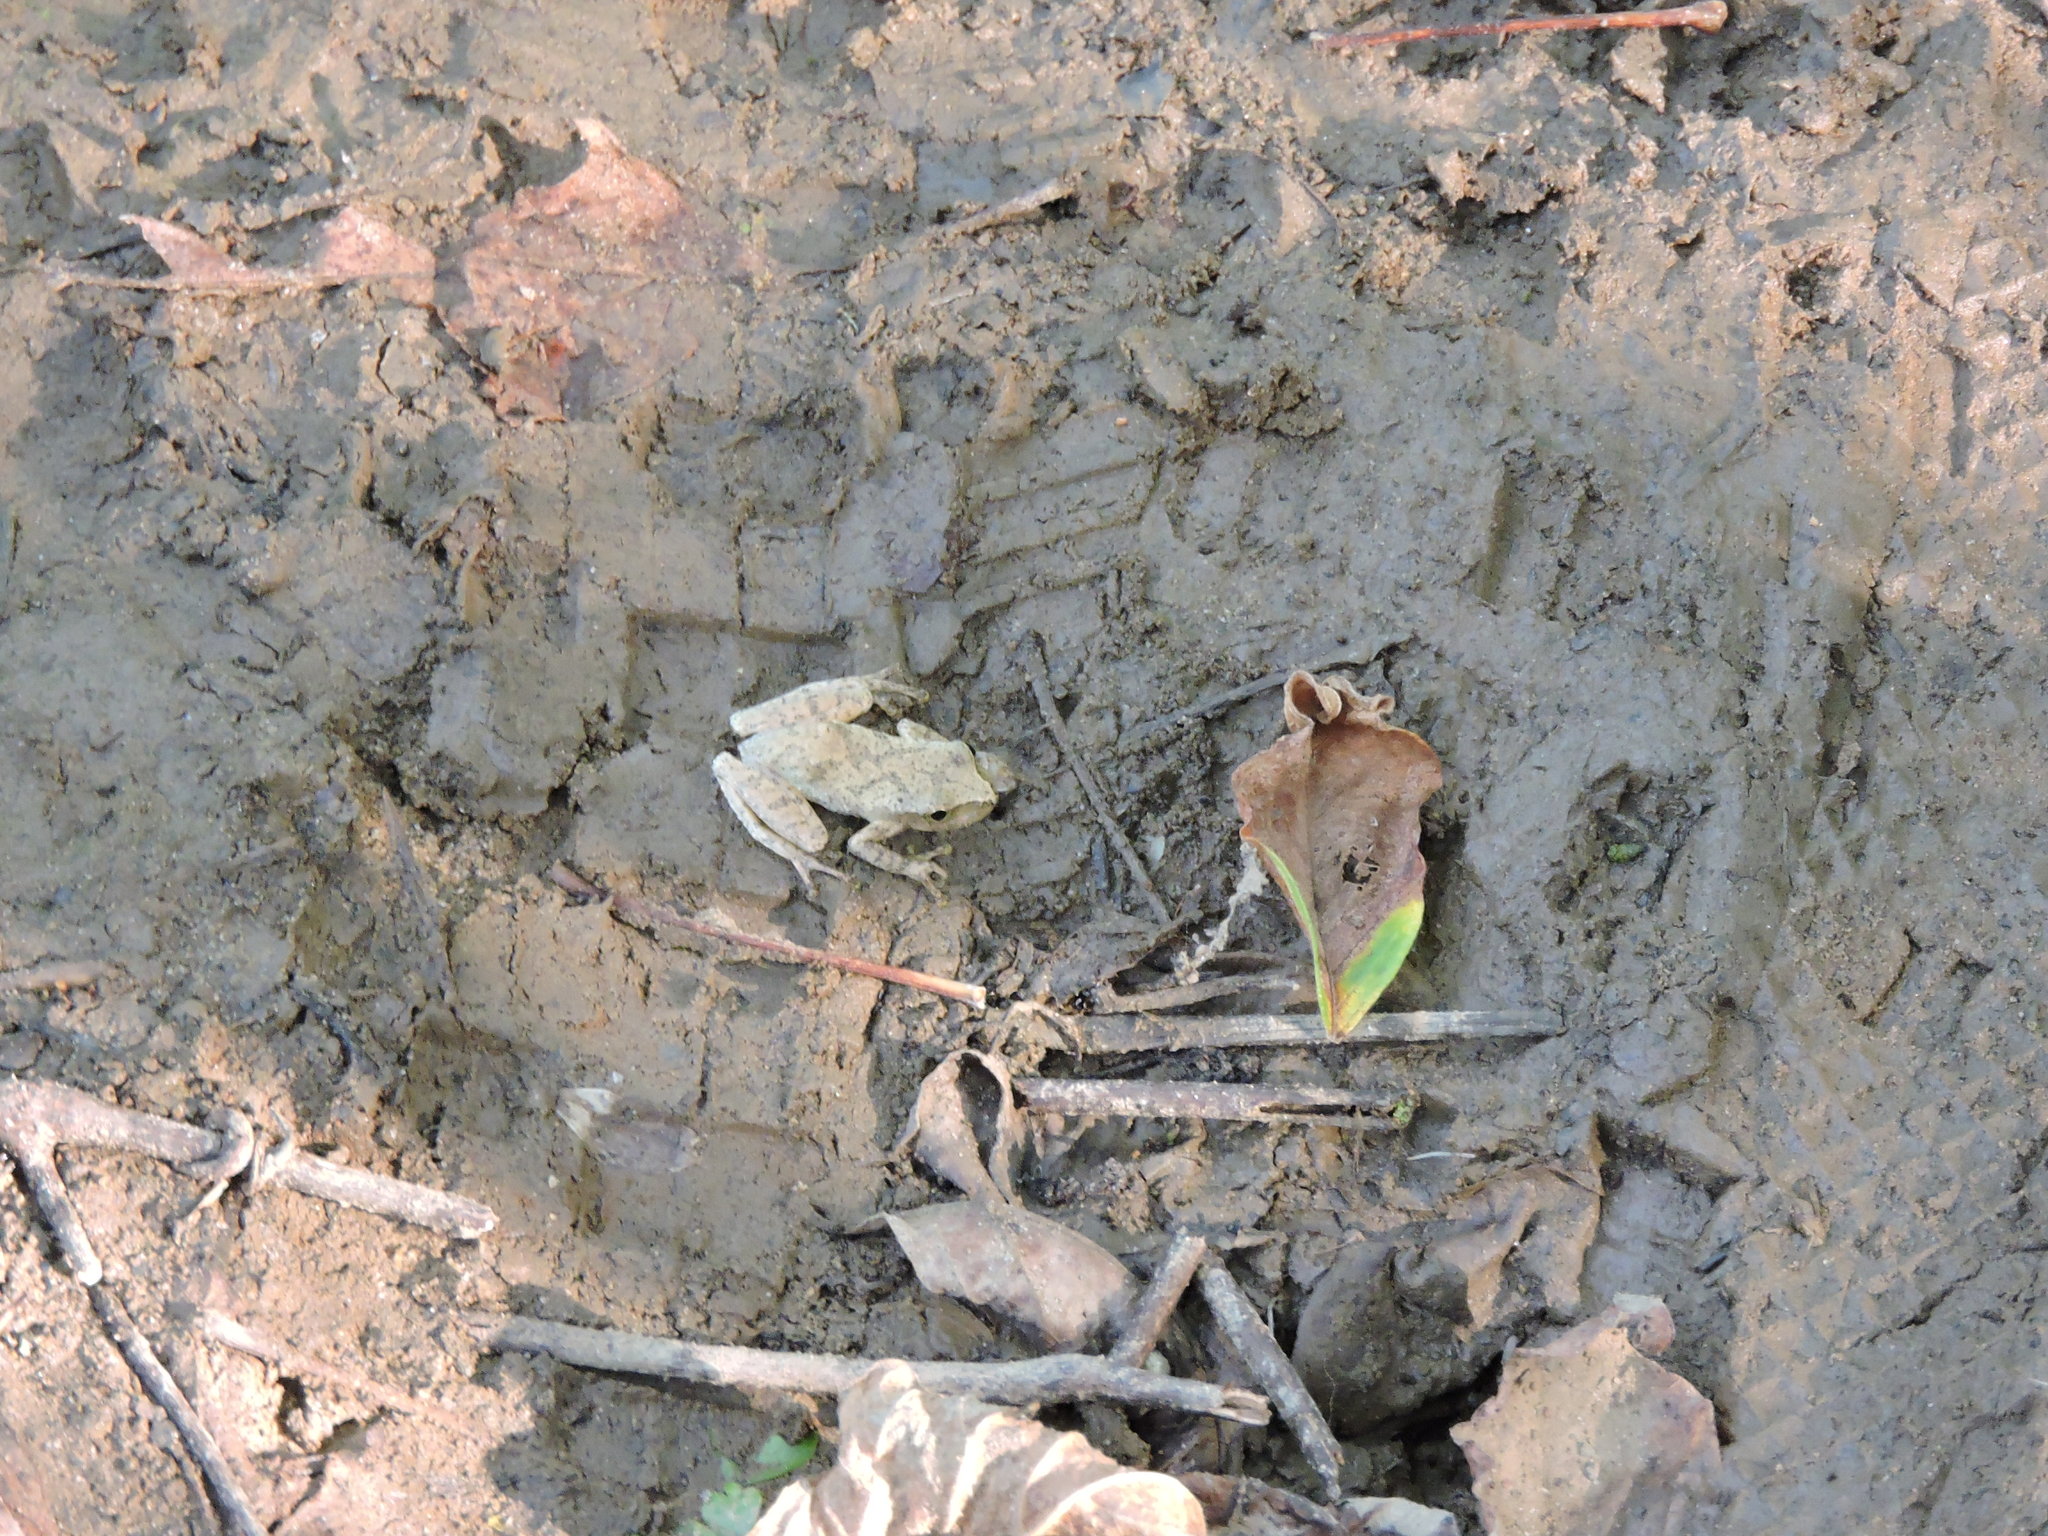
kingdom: Animalia
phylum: Chordata
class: Amphibia
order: Anura
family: Hylidae
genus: Pseudacris
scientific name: Pseudacris crucifer
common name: Spring peeper
